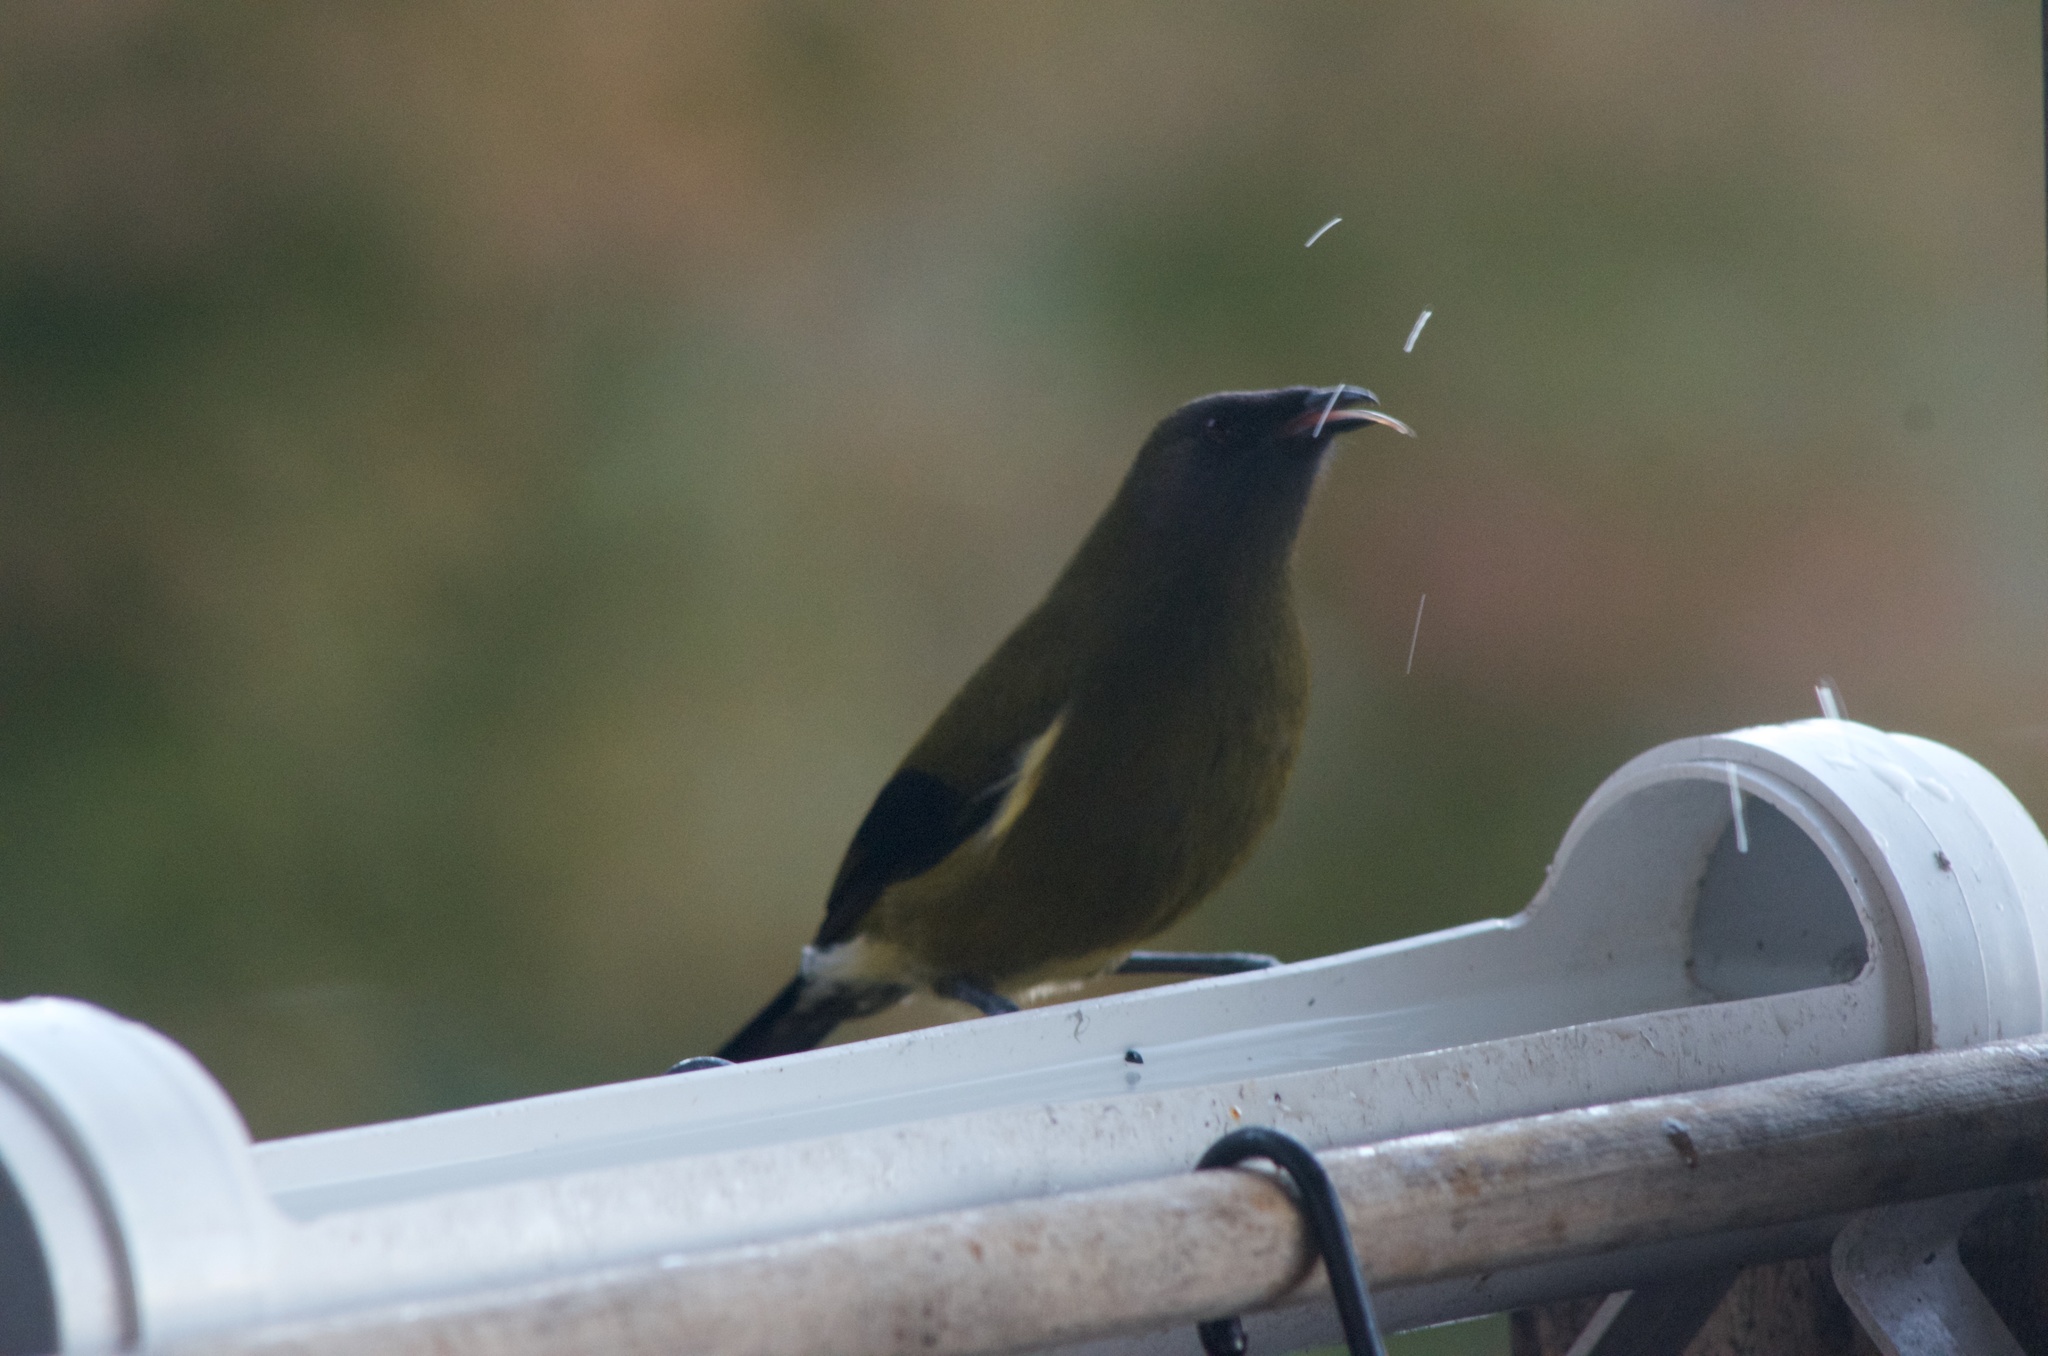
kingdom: Animalia
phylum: Chordata
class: Aves
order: Passeriformes
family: Meliphagidae
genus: Anthornis
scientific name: Anthornis melanura
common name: New zealand bellbird
